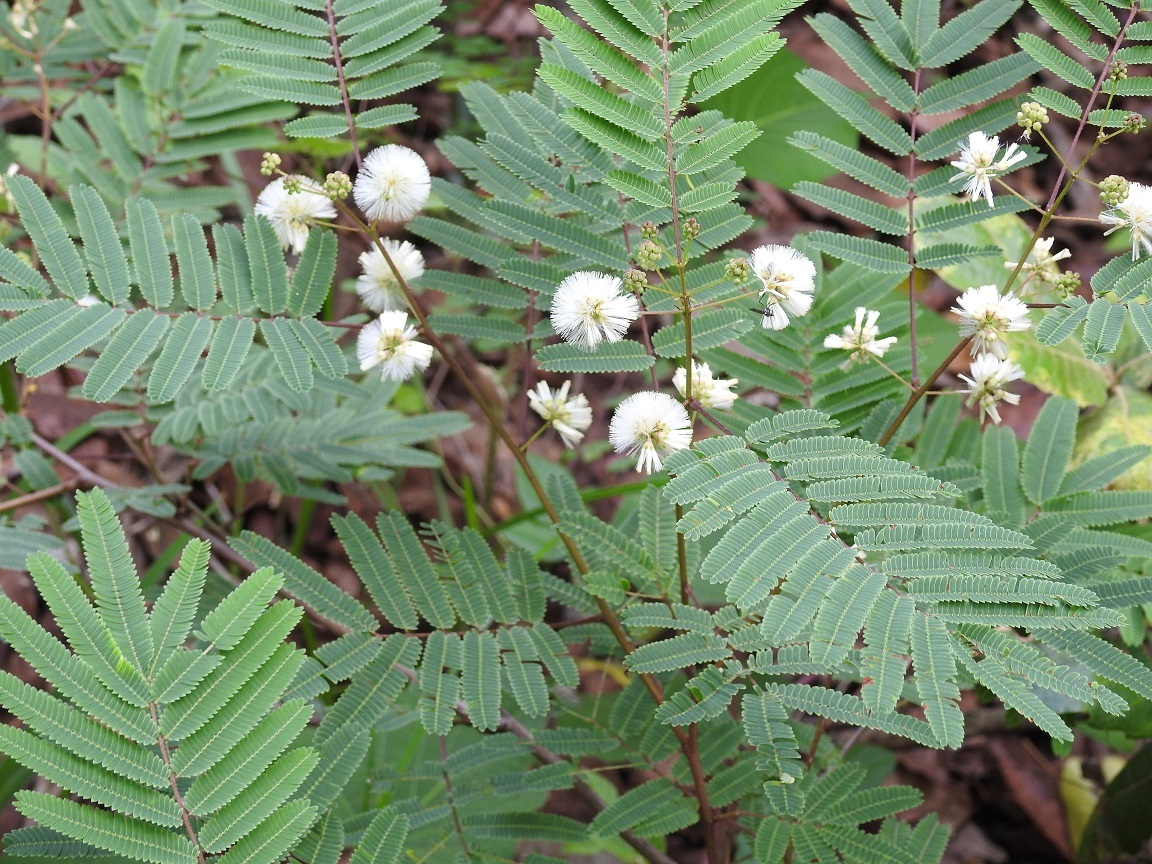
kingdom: Plantae
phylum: Tracheophyta
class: Magnoliopsida
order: Fabales
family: Fabaceae
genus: Acaciella
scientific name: Acaciella angustissima
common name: Prairie acacia
